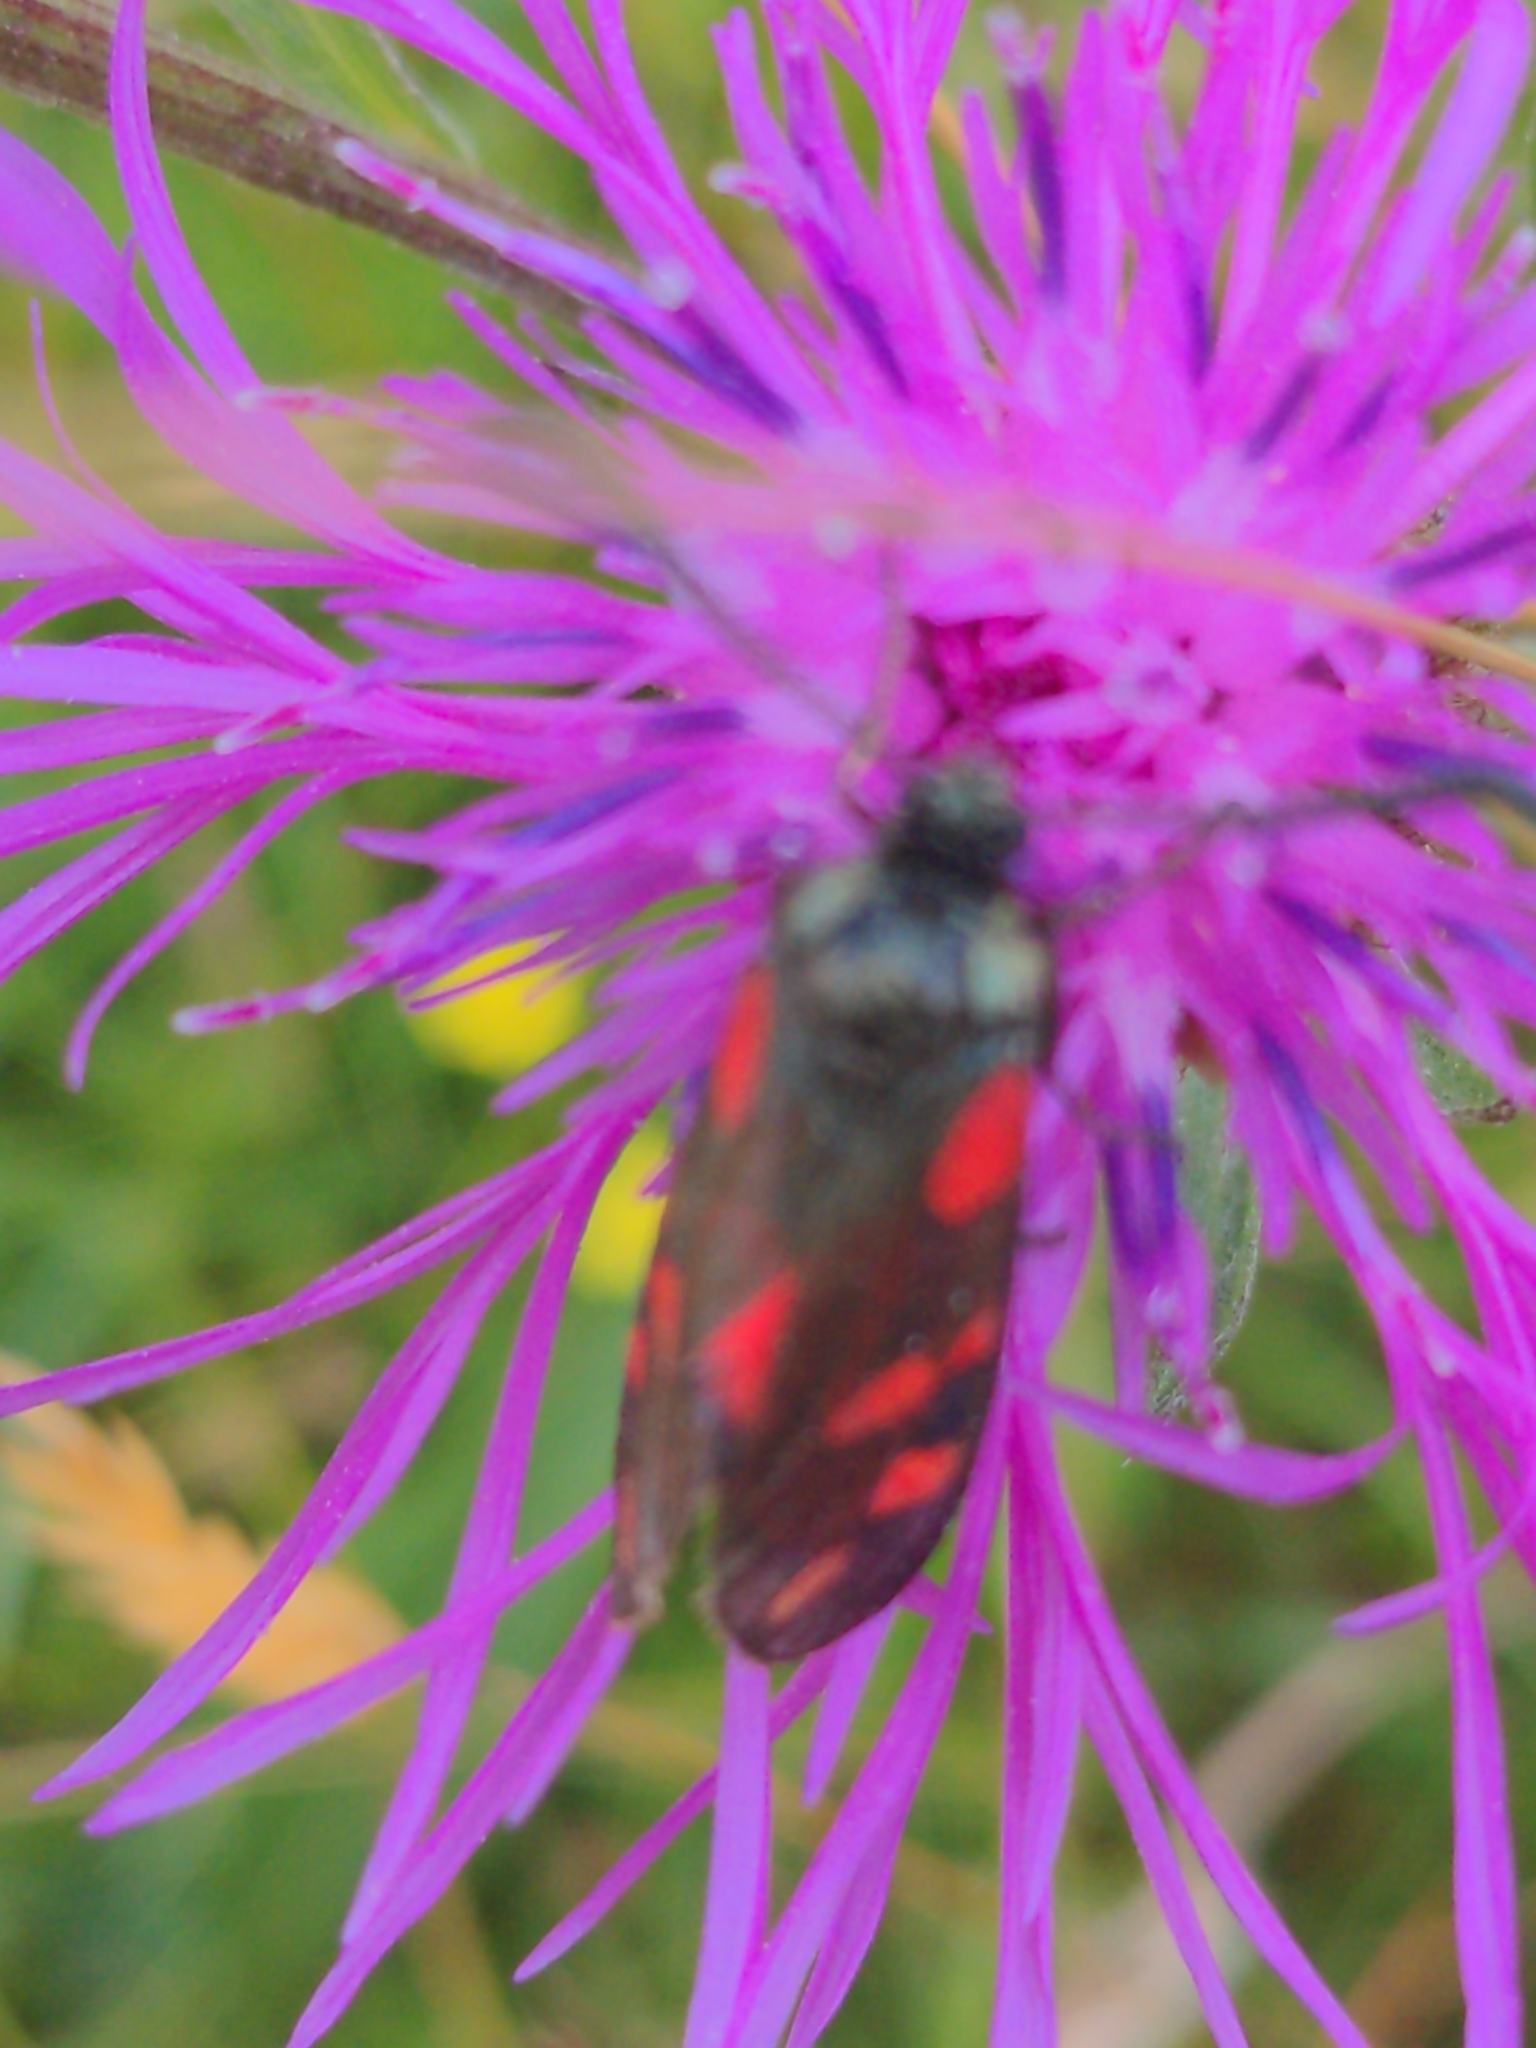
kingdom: Animalia
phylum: Arthropoda
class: Insecta
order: Lepidoptera
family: Zygaenidae
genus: Zygaena
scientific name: Zygaena filipendulae
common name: Six-spot burnet
